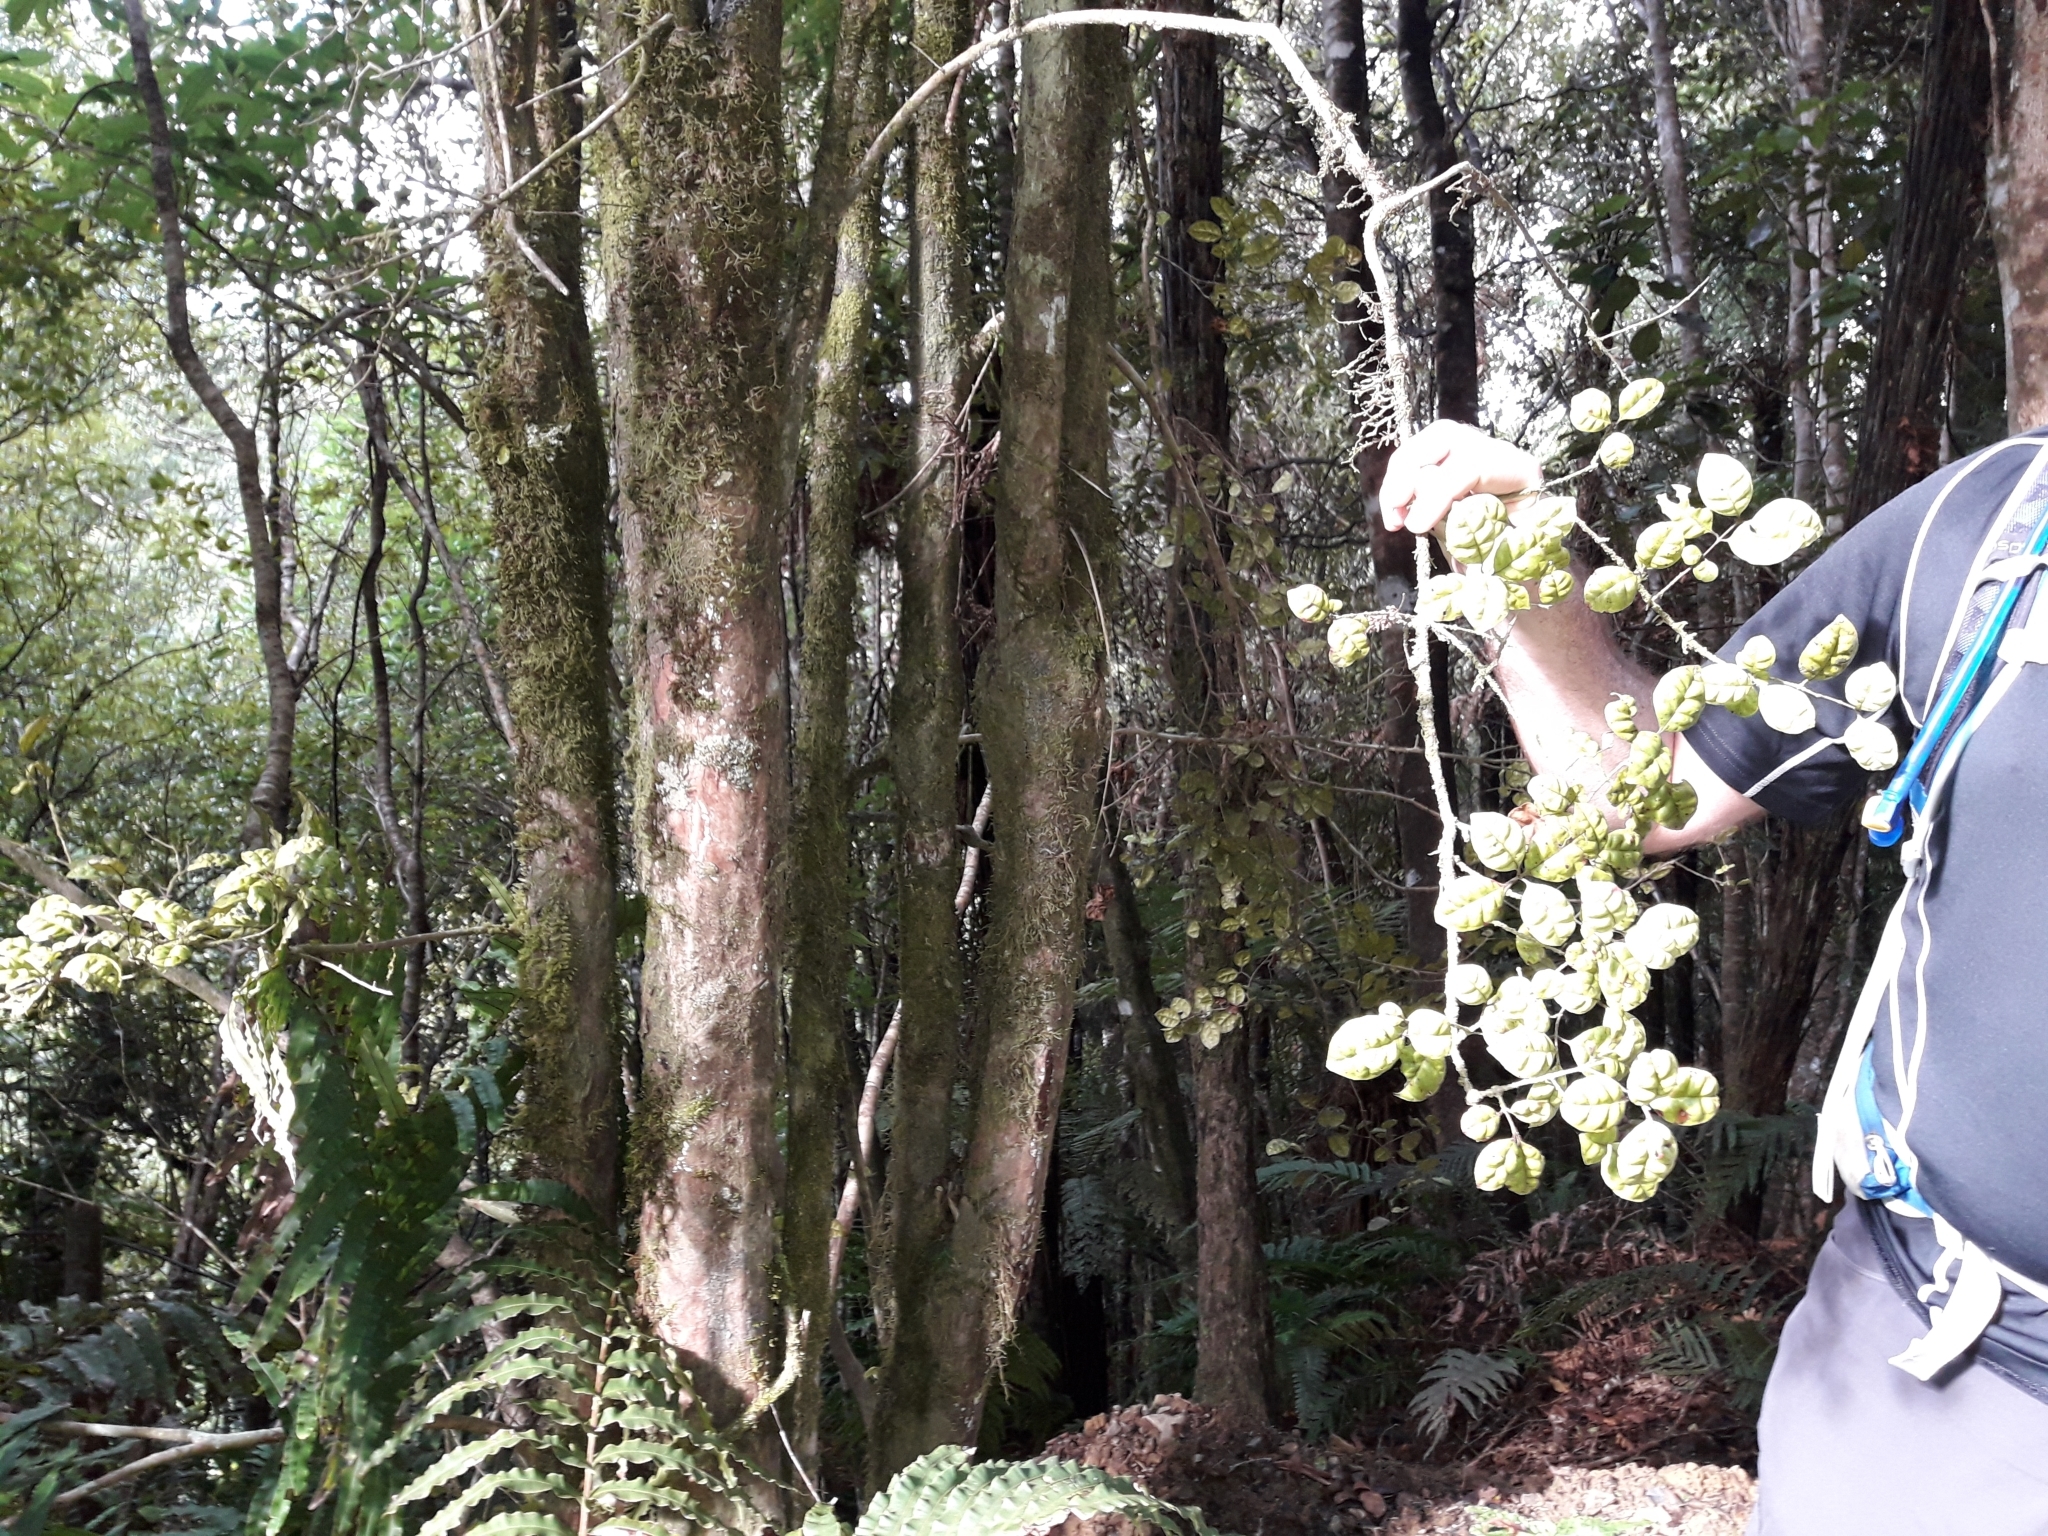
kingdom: Plantae
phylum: Tracheophyta
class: Magnoliopsida
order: Myrtales
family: Myrtaceae
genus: Lophomyrtus
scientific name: Lophomyrtus bullata
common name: Rama rama
